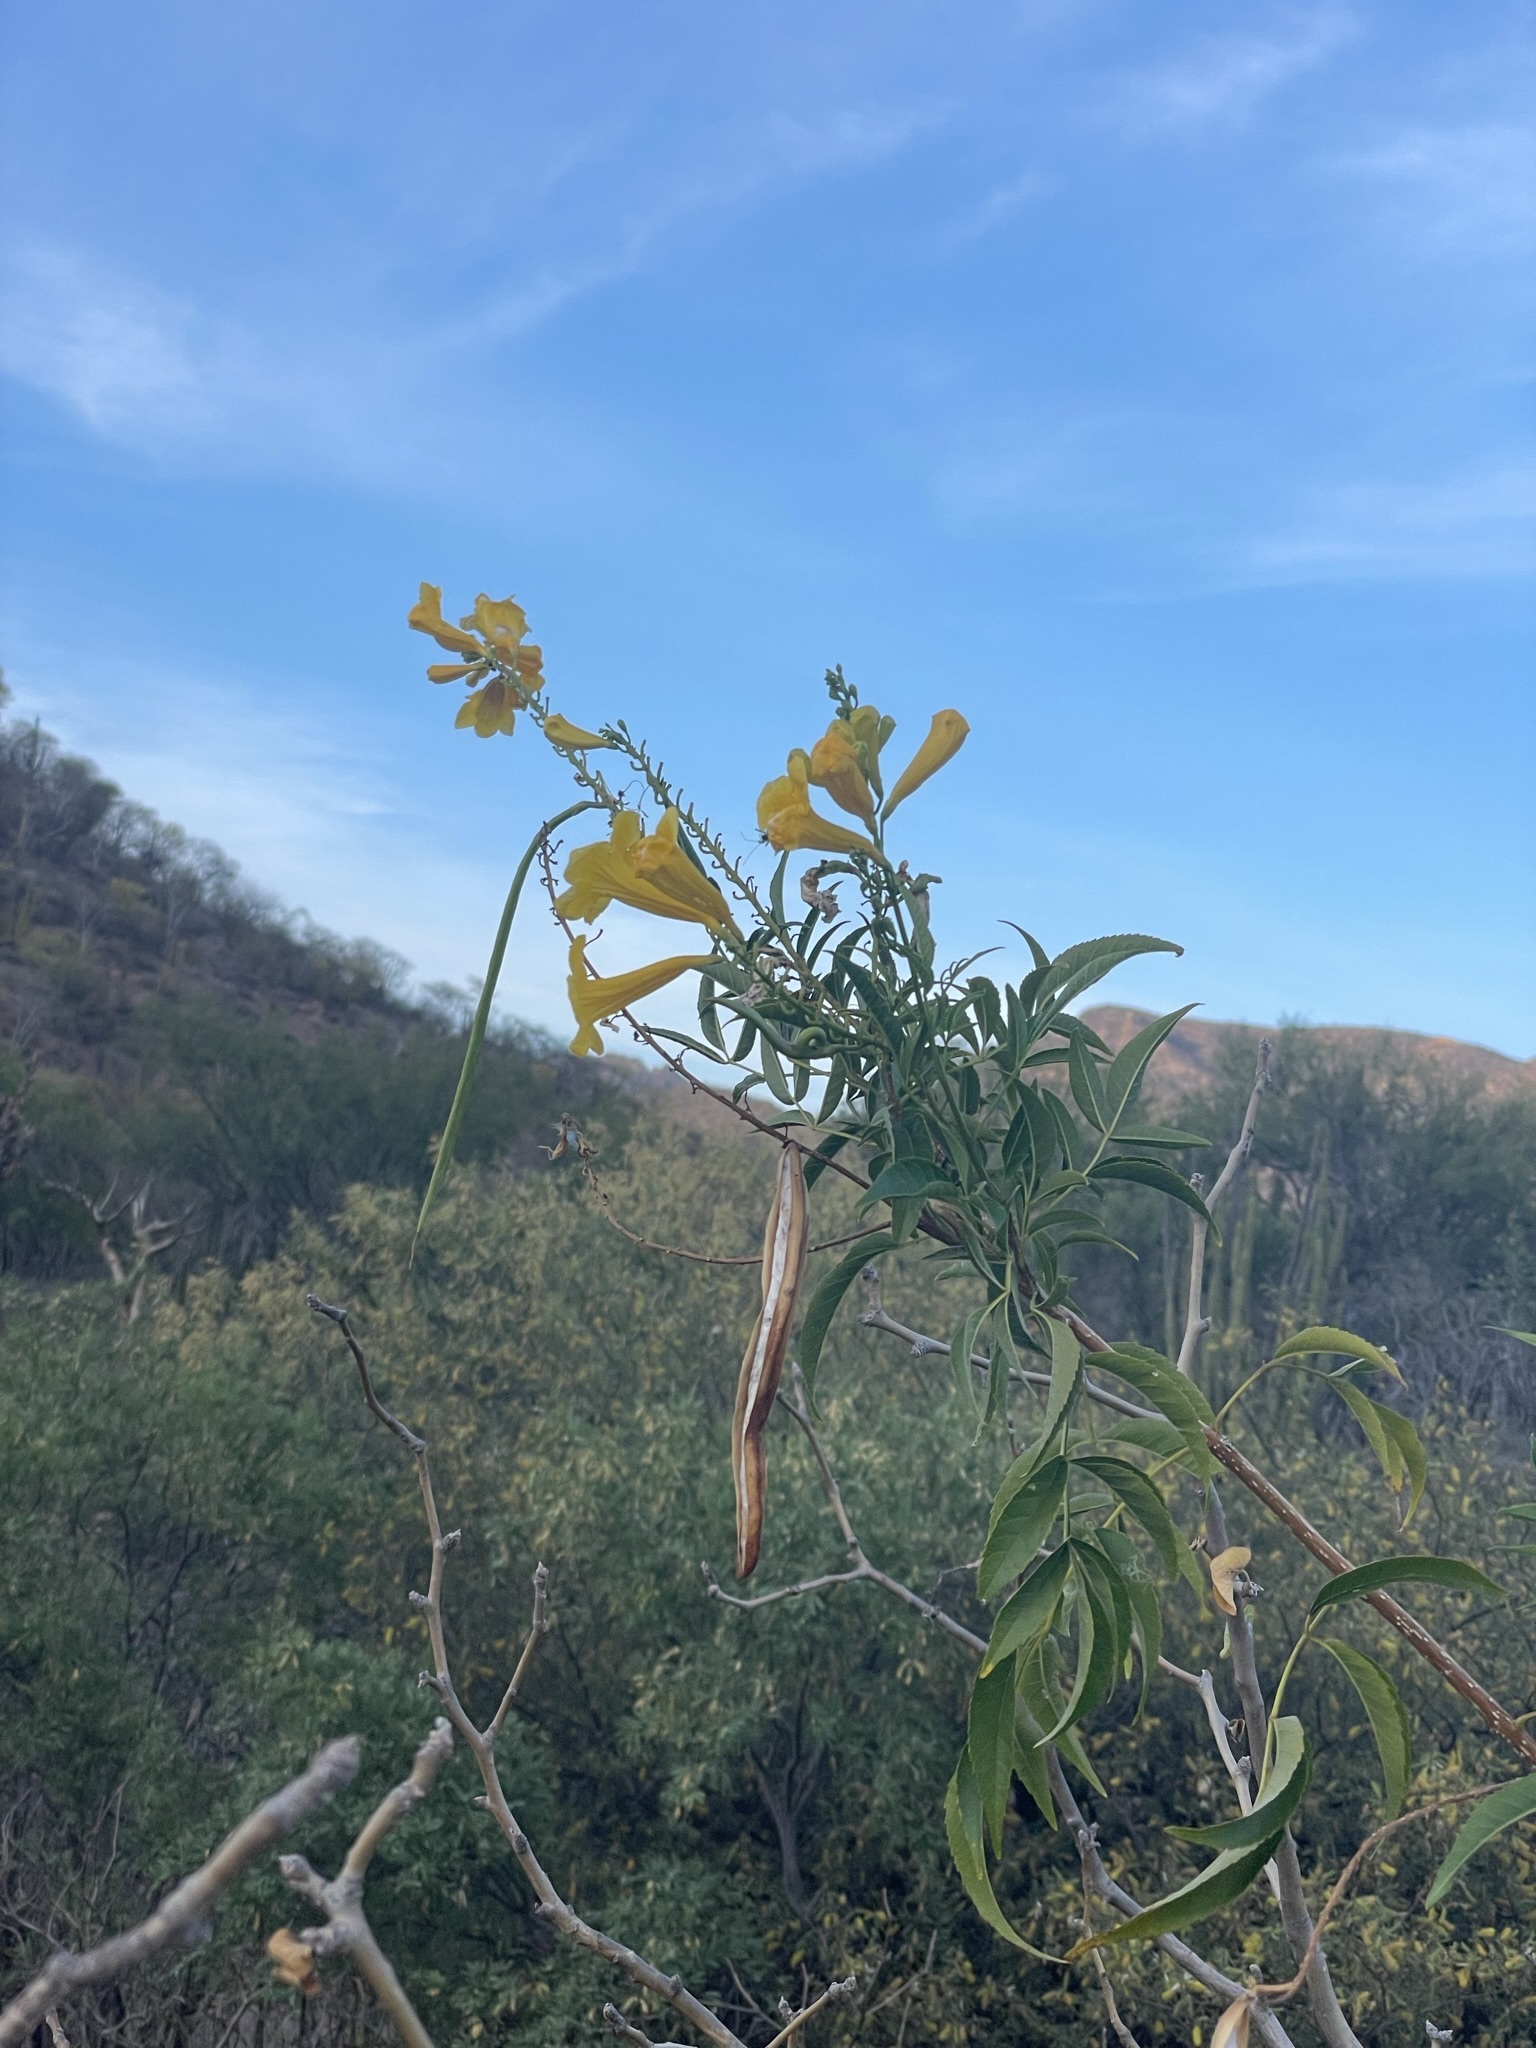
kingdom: Plantae
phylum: Tracheophyta
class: Magnoliopsida
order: Lamiales
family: Bignoniaceae
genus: Tecoma
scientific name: Tecoma stans
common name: Yellow trumpetbush
